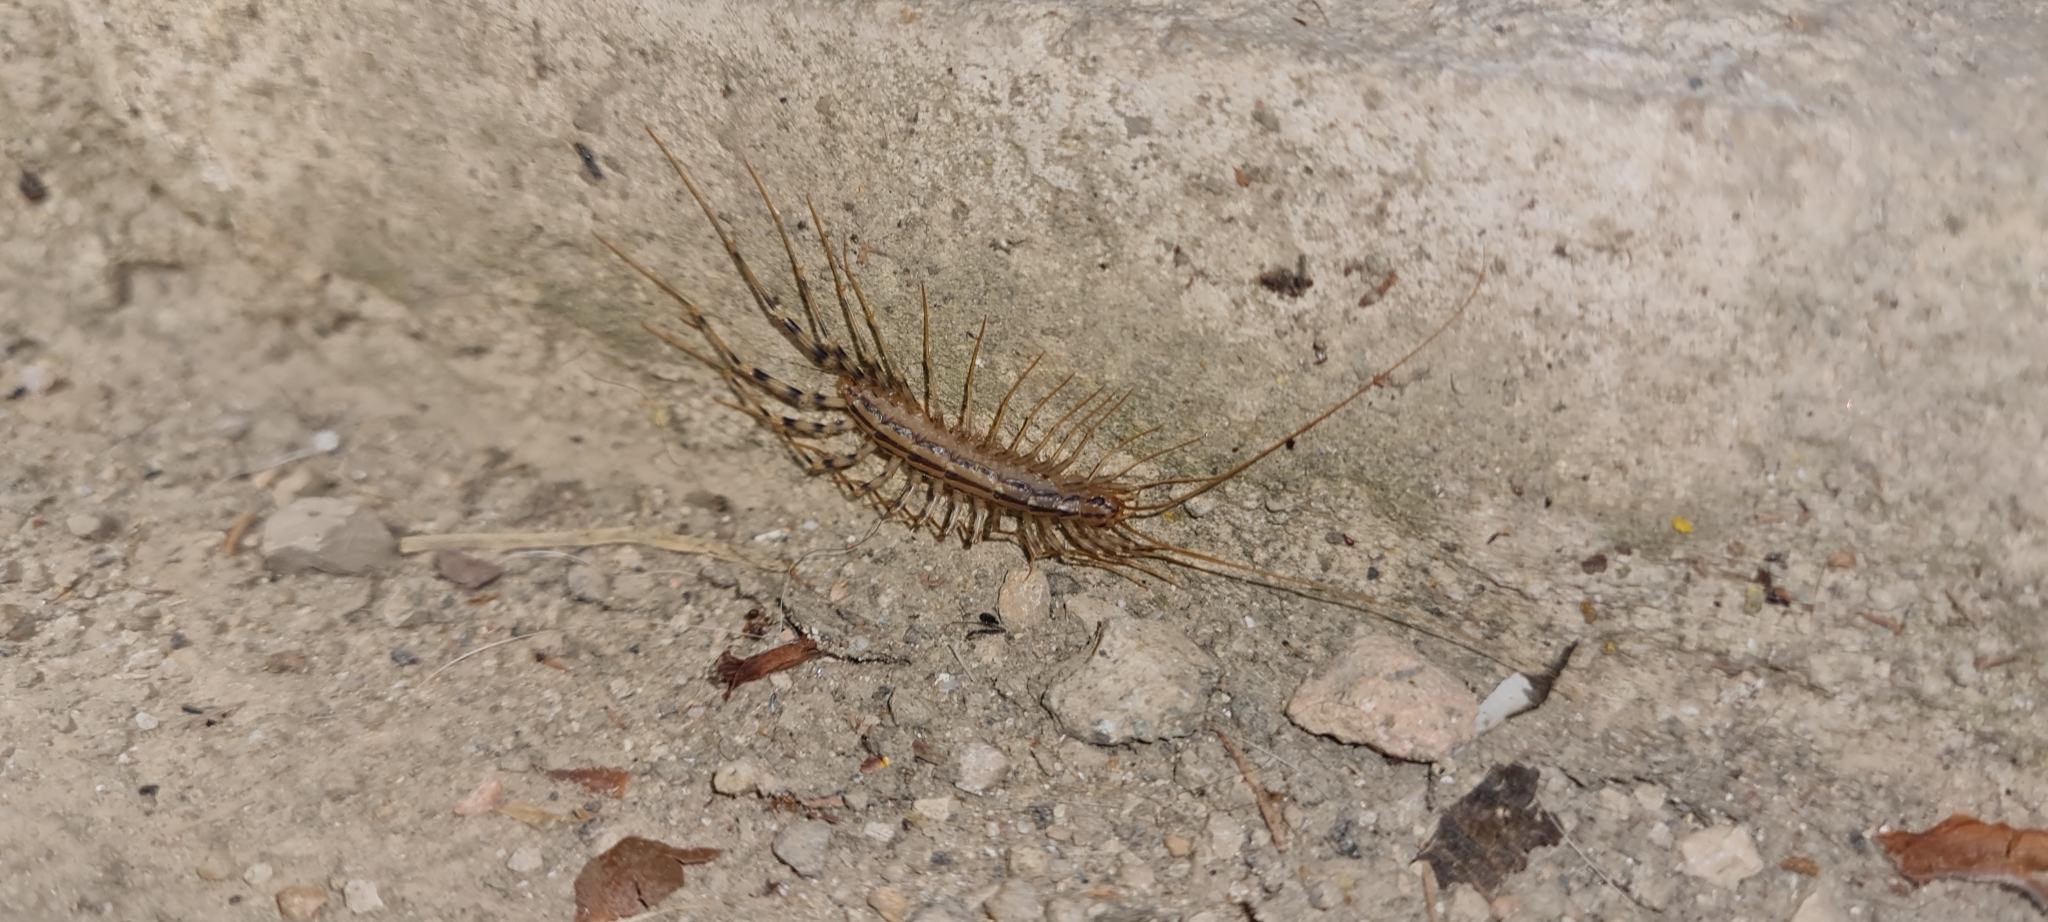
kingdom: Animalia
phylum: Arthropoda
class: Chilopoda
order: Scutigeromorpha
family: Scutigeridae
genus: Scutigera
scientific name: Scutigera coleoptrata
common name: House centipede
